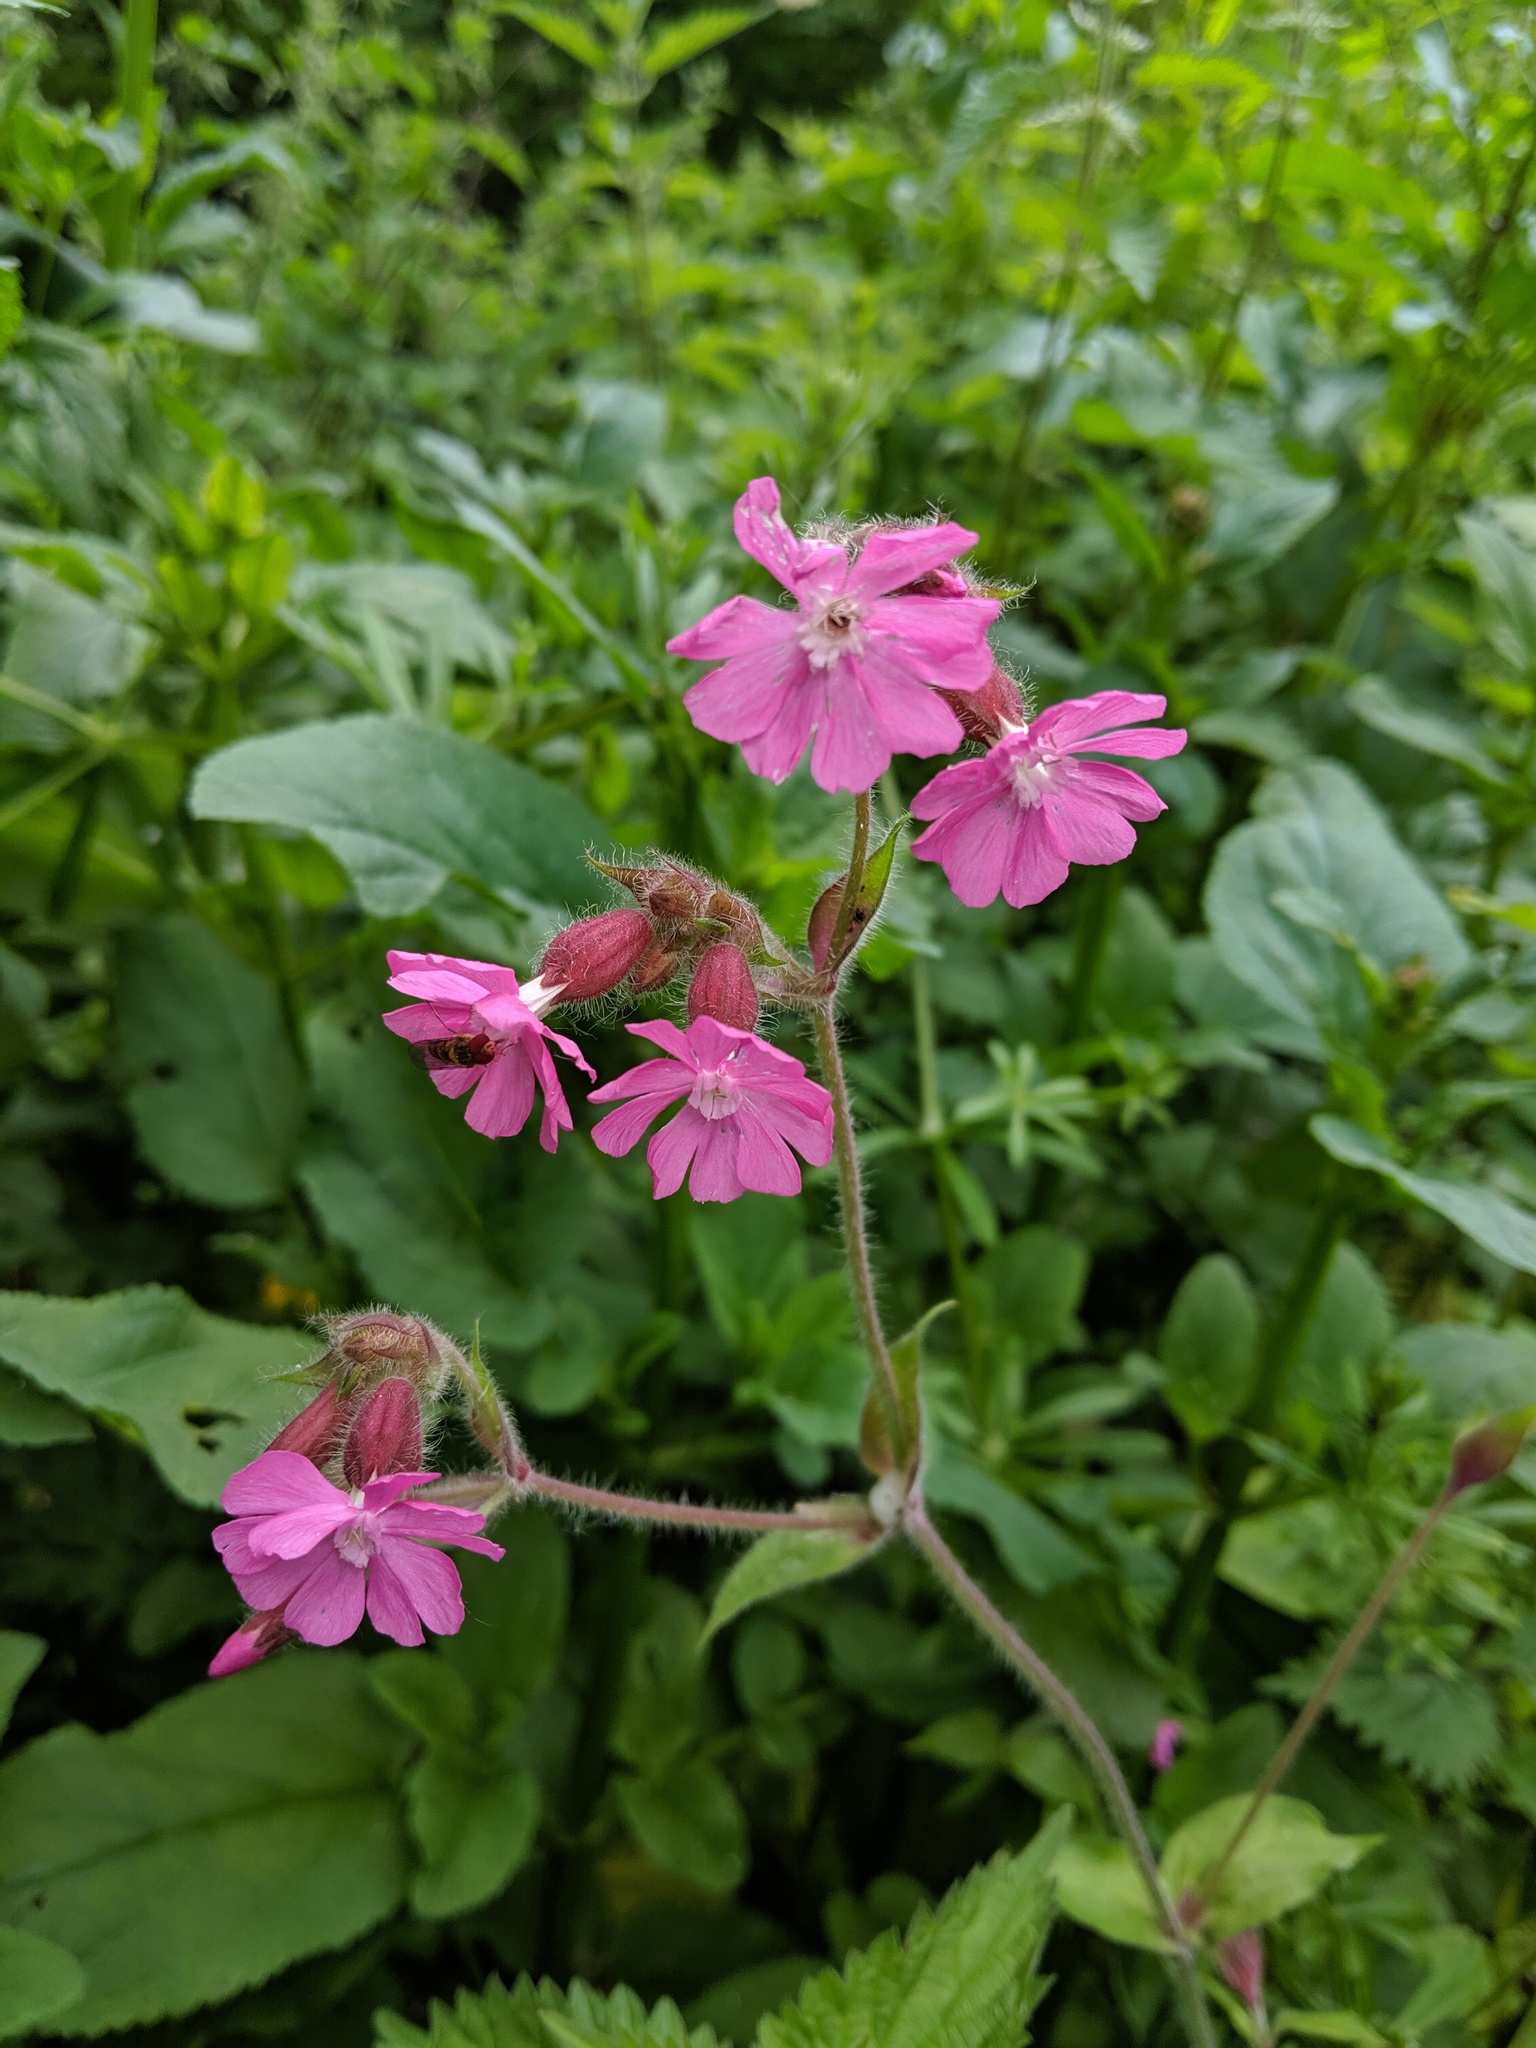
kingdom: Plantae
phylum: Tracheophyta
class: Magnoliopsida
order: Caryophyllales
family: Caryophyllaceae
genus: Silene
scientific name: Silene dioica
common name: Red campion
